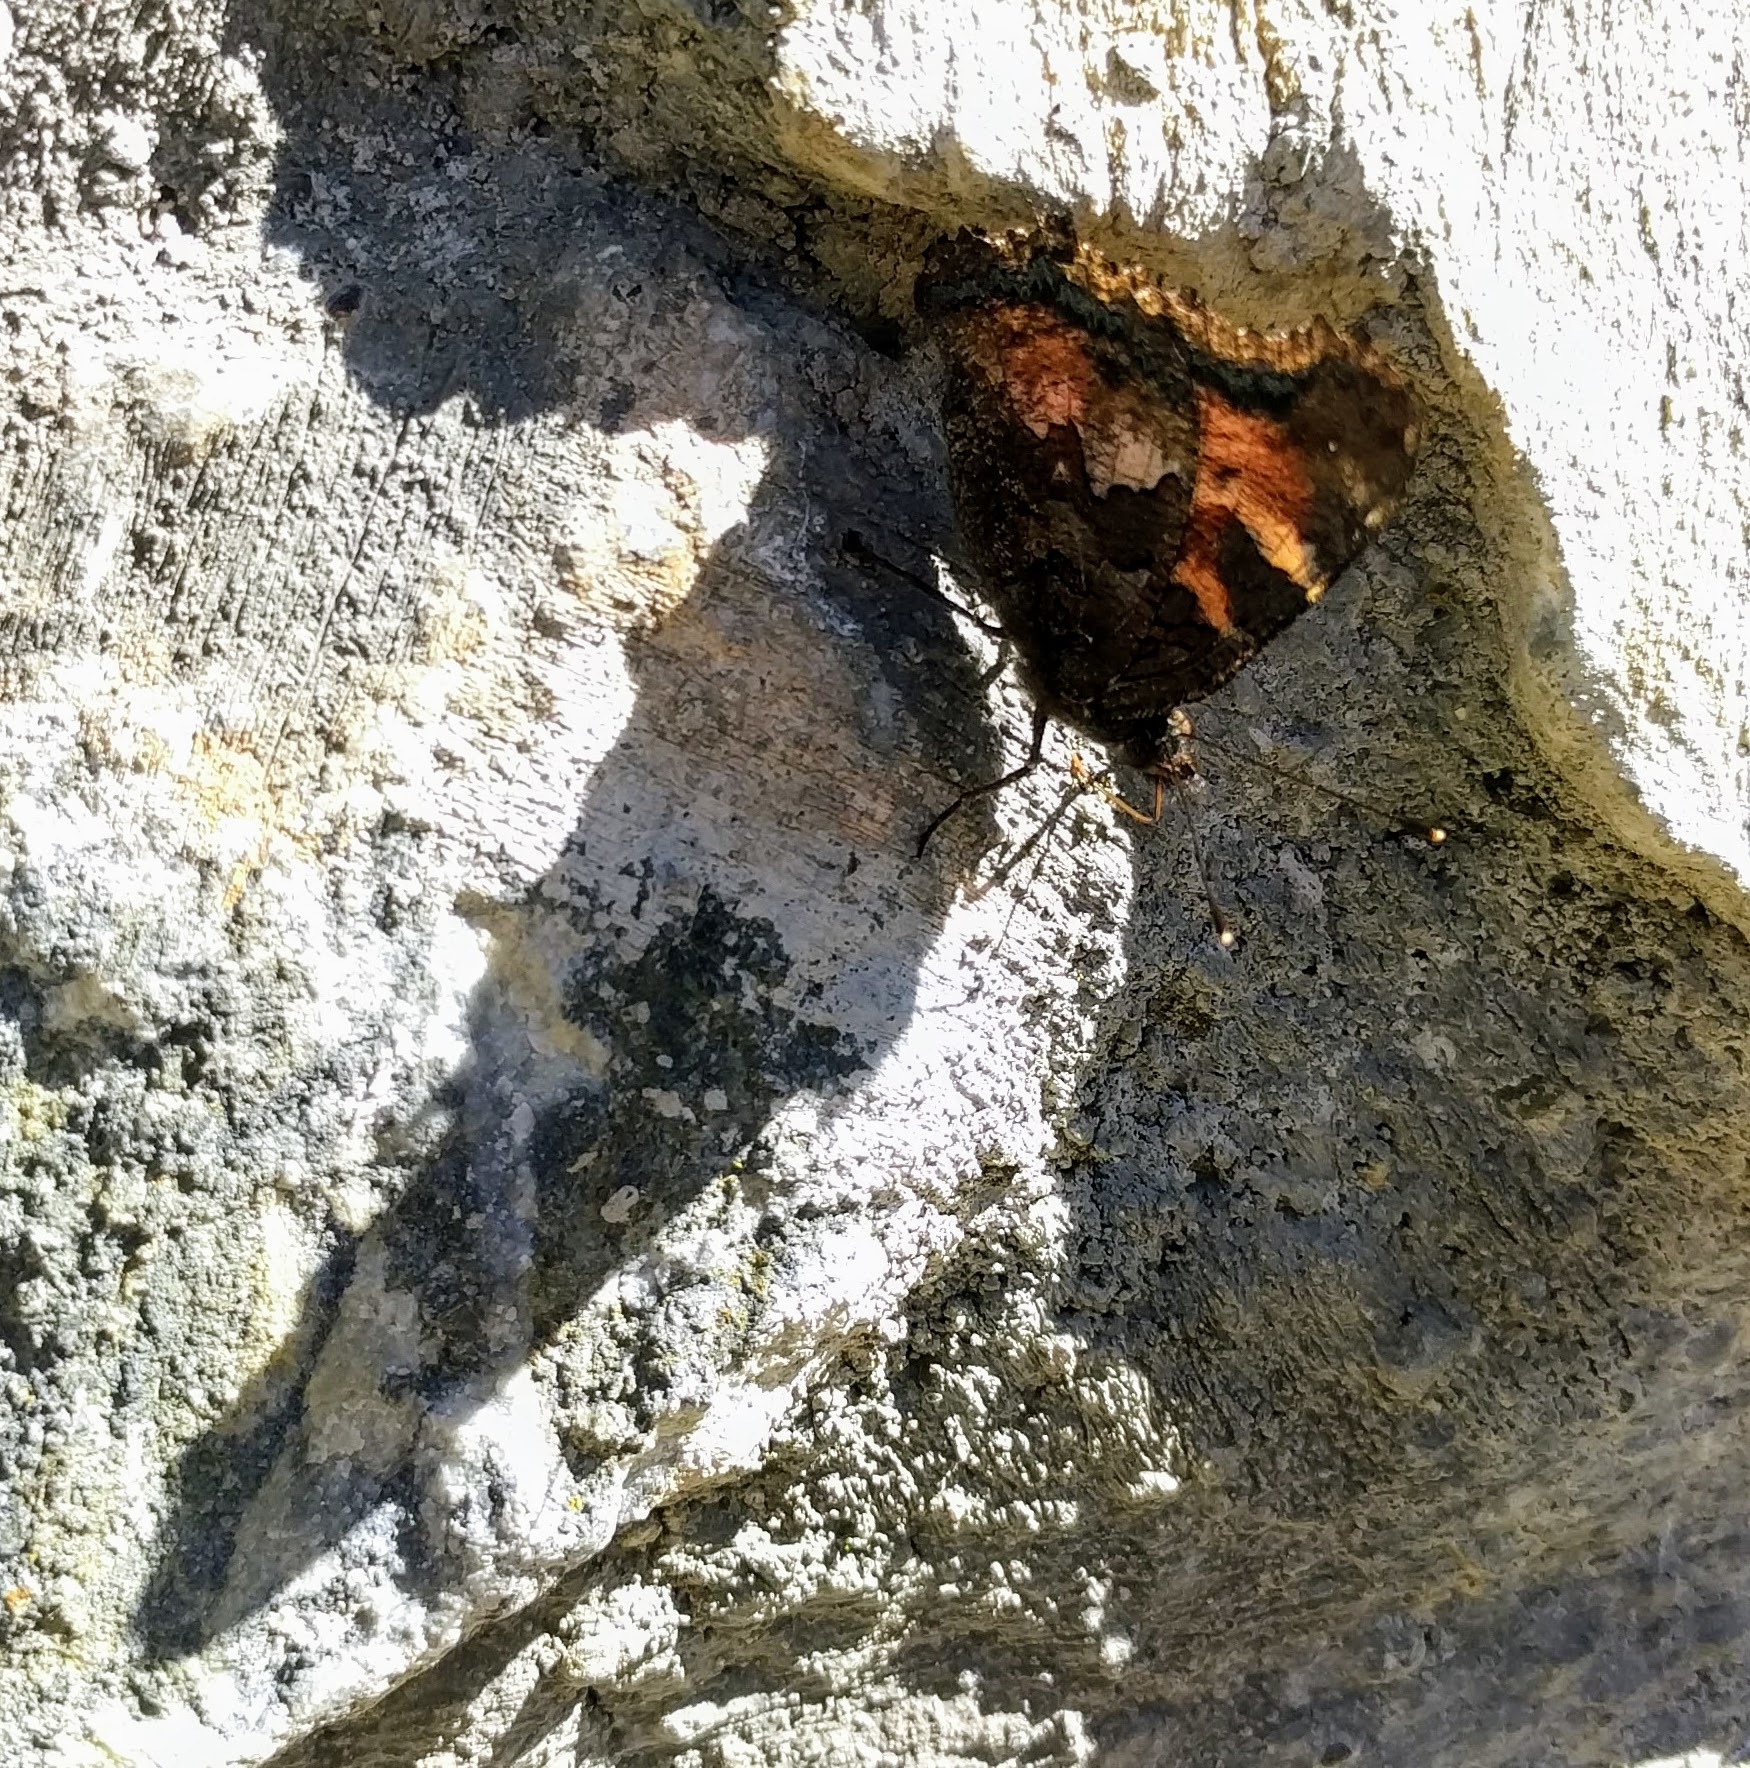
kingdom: Animalia
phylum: Arthropoda
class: Insecta
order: Lepidoptera
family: Nymphalidae
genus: Nymphalis
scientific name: Nymphalis californica
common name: California tortoiseshell
